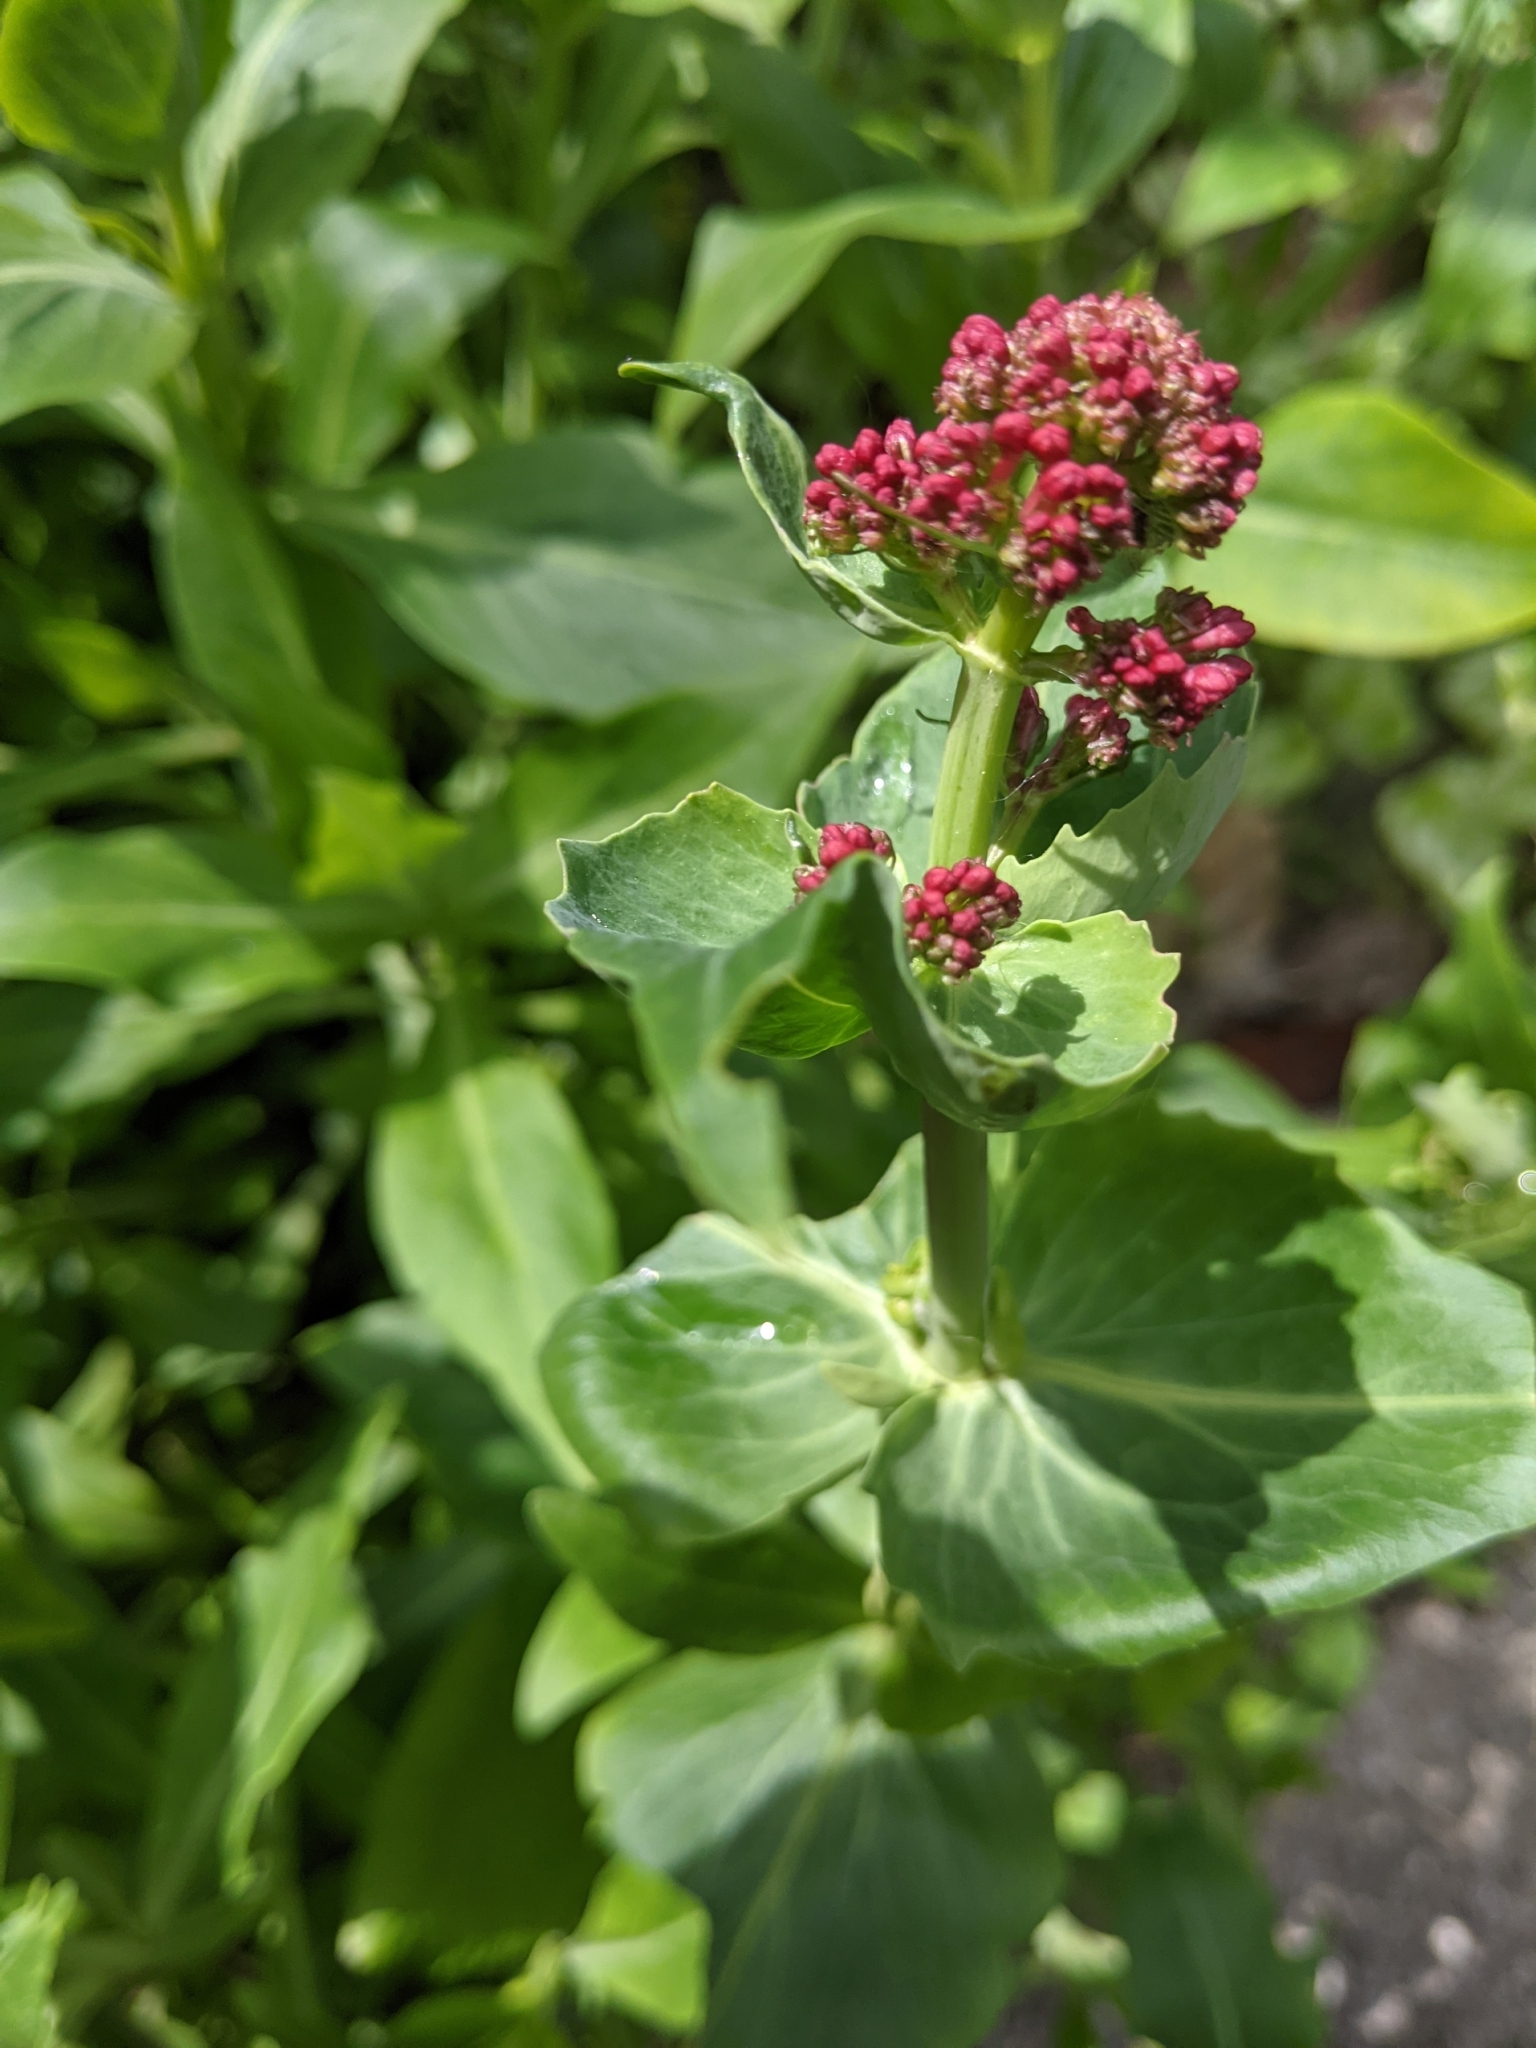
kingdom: Plantae
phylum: Tracheophyta
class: Magnoliopsida
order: Dipsacales
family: Caprifoliaceae
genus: Centranthus
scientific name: Centranthus ruber
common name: Red valerian
